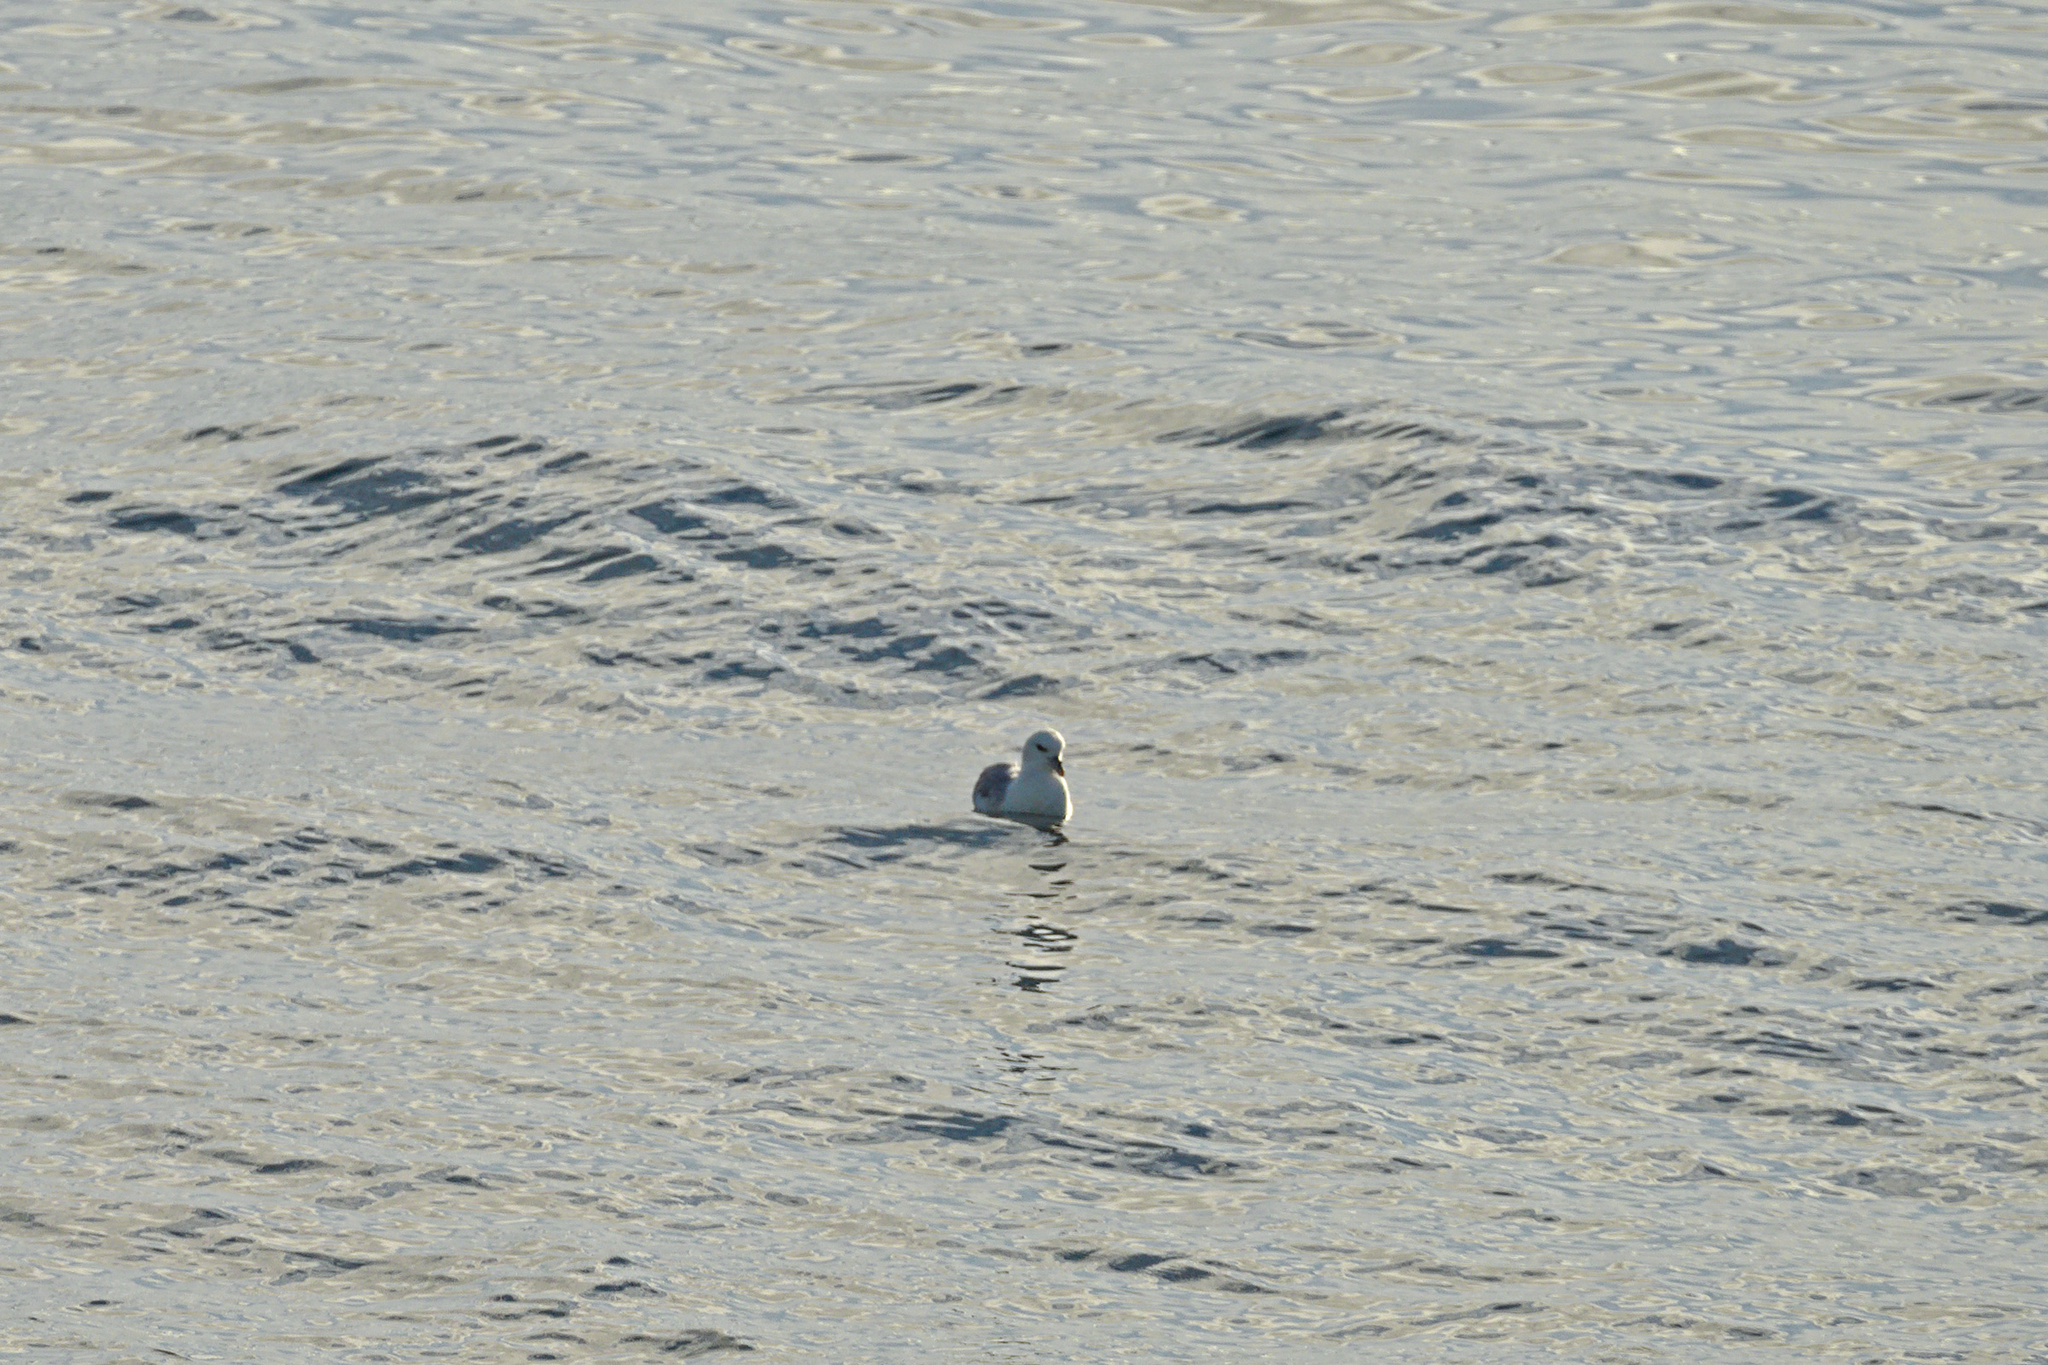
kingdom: Animalia
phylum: Chordata
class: Aves
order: Procellariiformes
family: Procellariidae
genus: Fulmarus
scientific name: Fulmarus glacialis
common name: Northern fulmar
